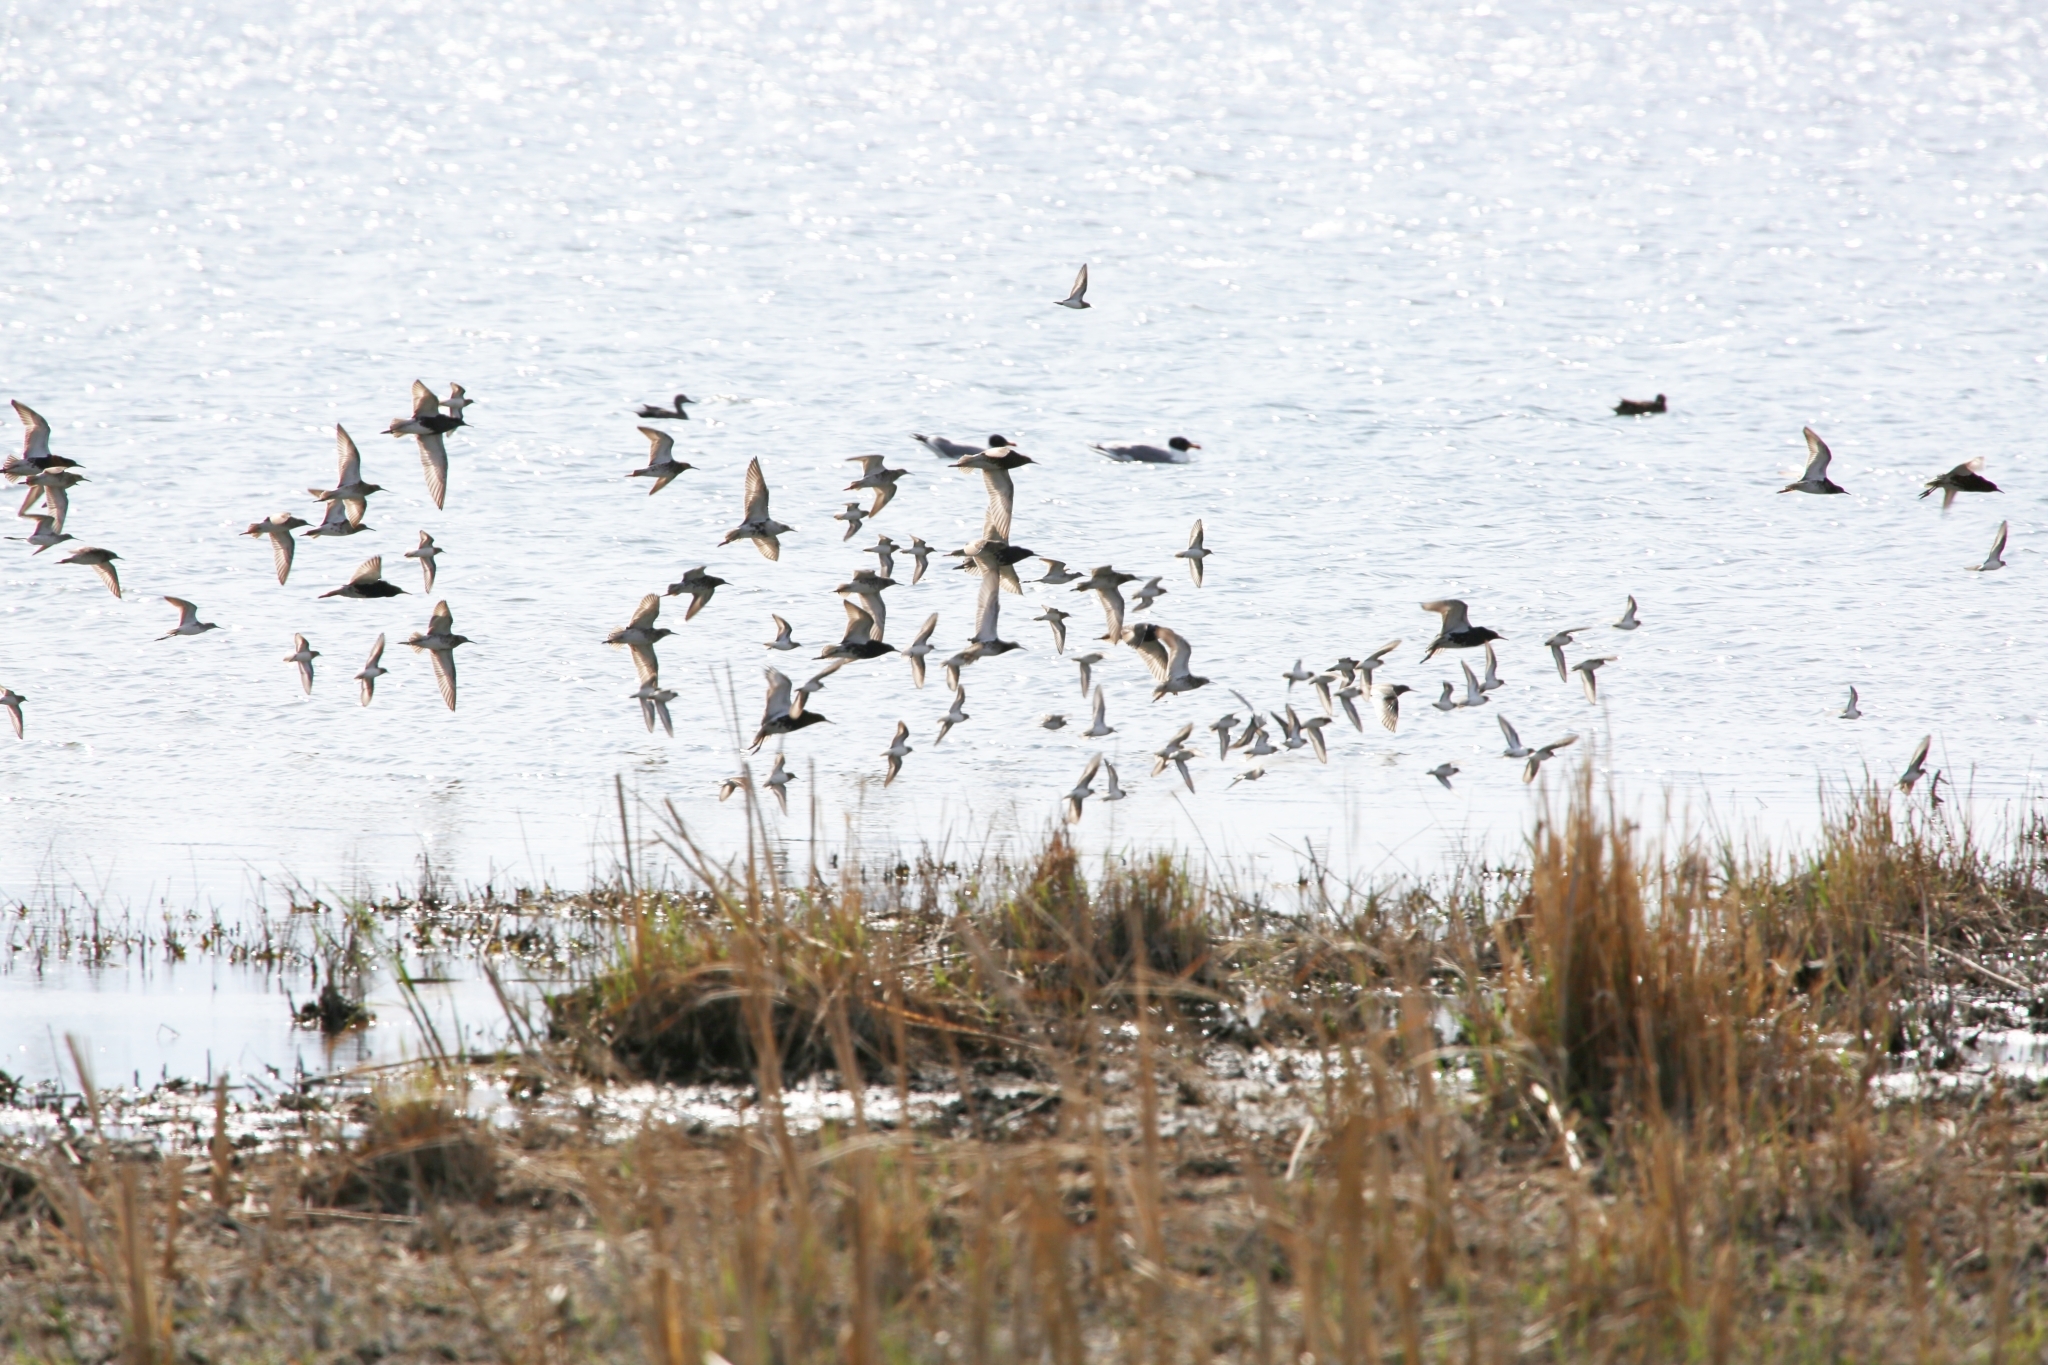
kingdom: Animalia
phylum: Chordata
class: Aves
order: Charadriiformes
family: Scolopacidae
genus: Calidris
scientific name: Calidris pugnax
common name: Ruff
